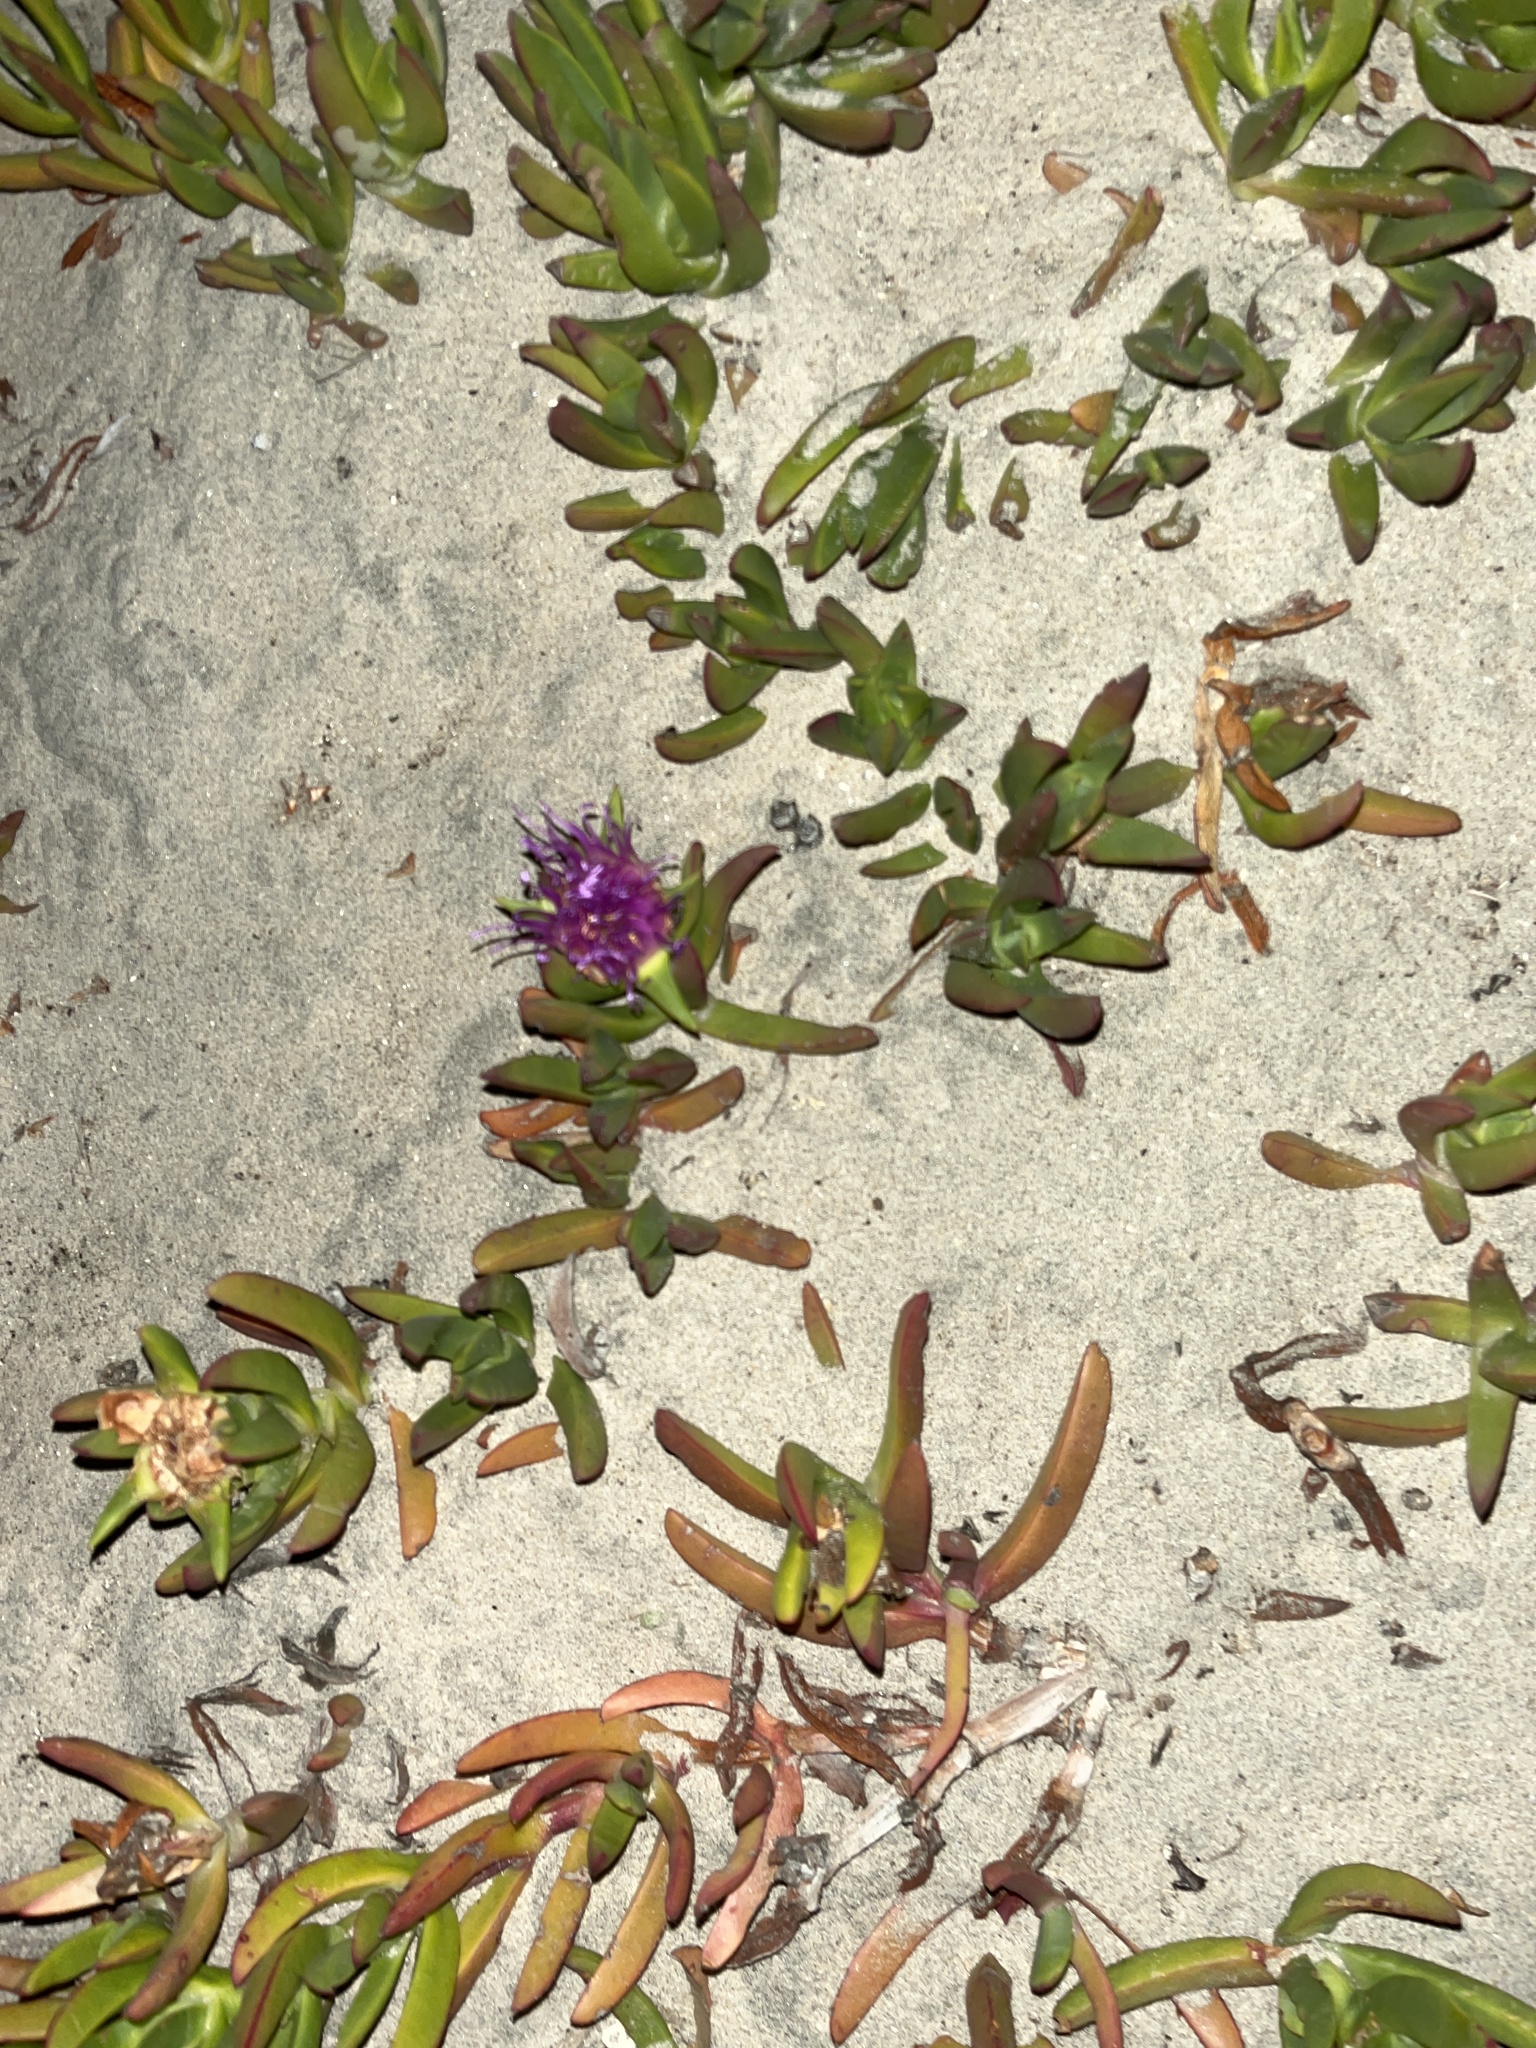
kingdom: Plantae
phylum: Tracheophyta
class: Magnoliopsida
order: Caryophyllales
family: Aizoaceae
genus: Carpobrotus
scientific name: Carpobrotus chilensis
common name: Sea fig
